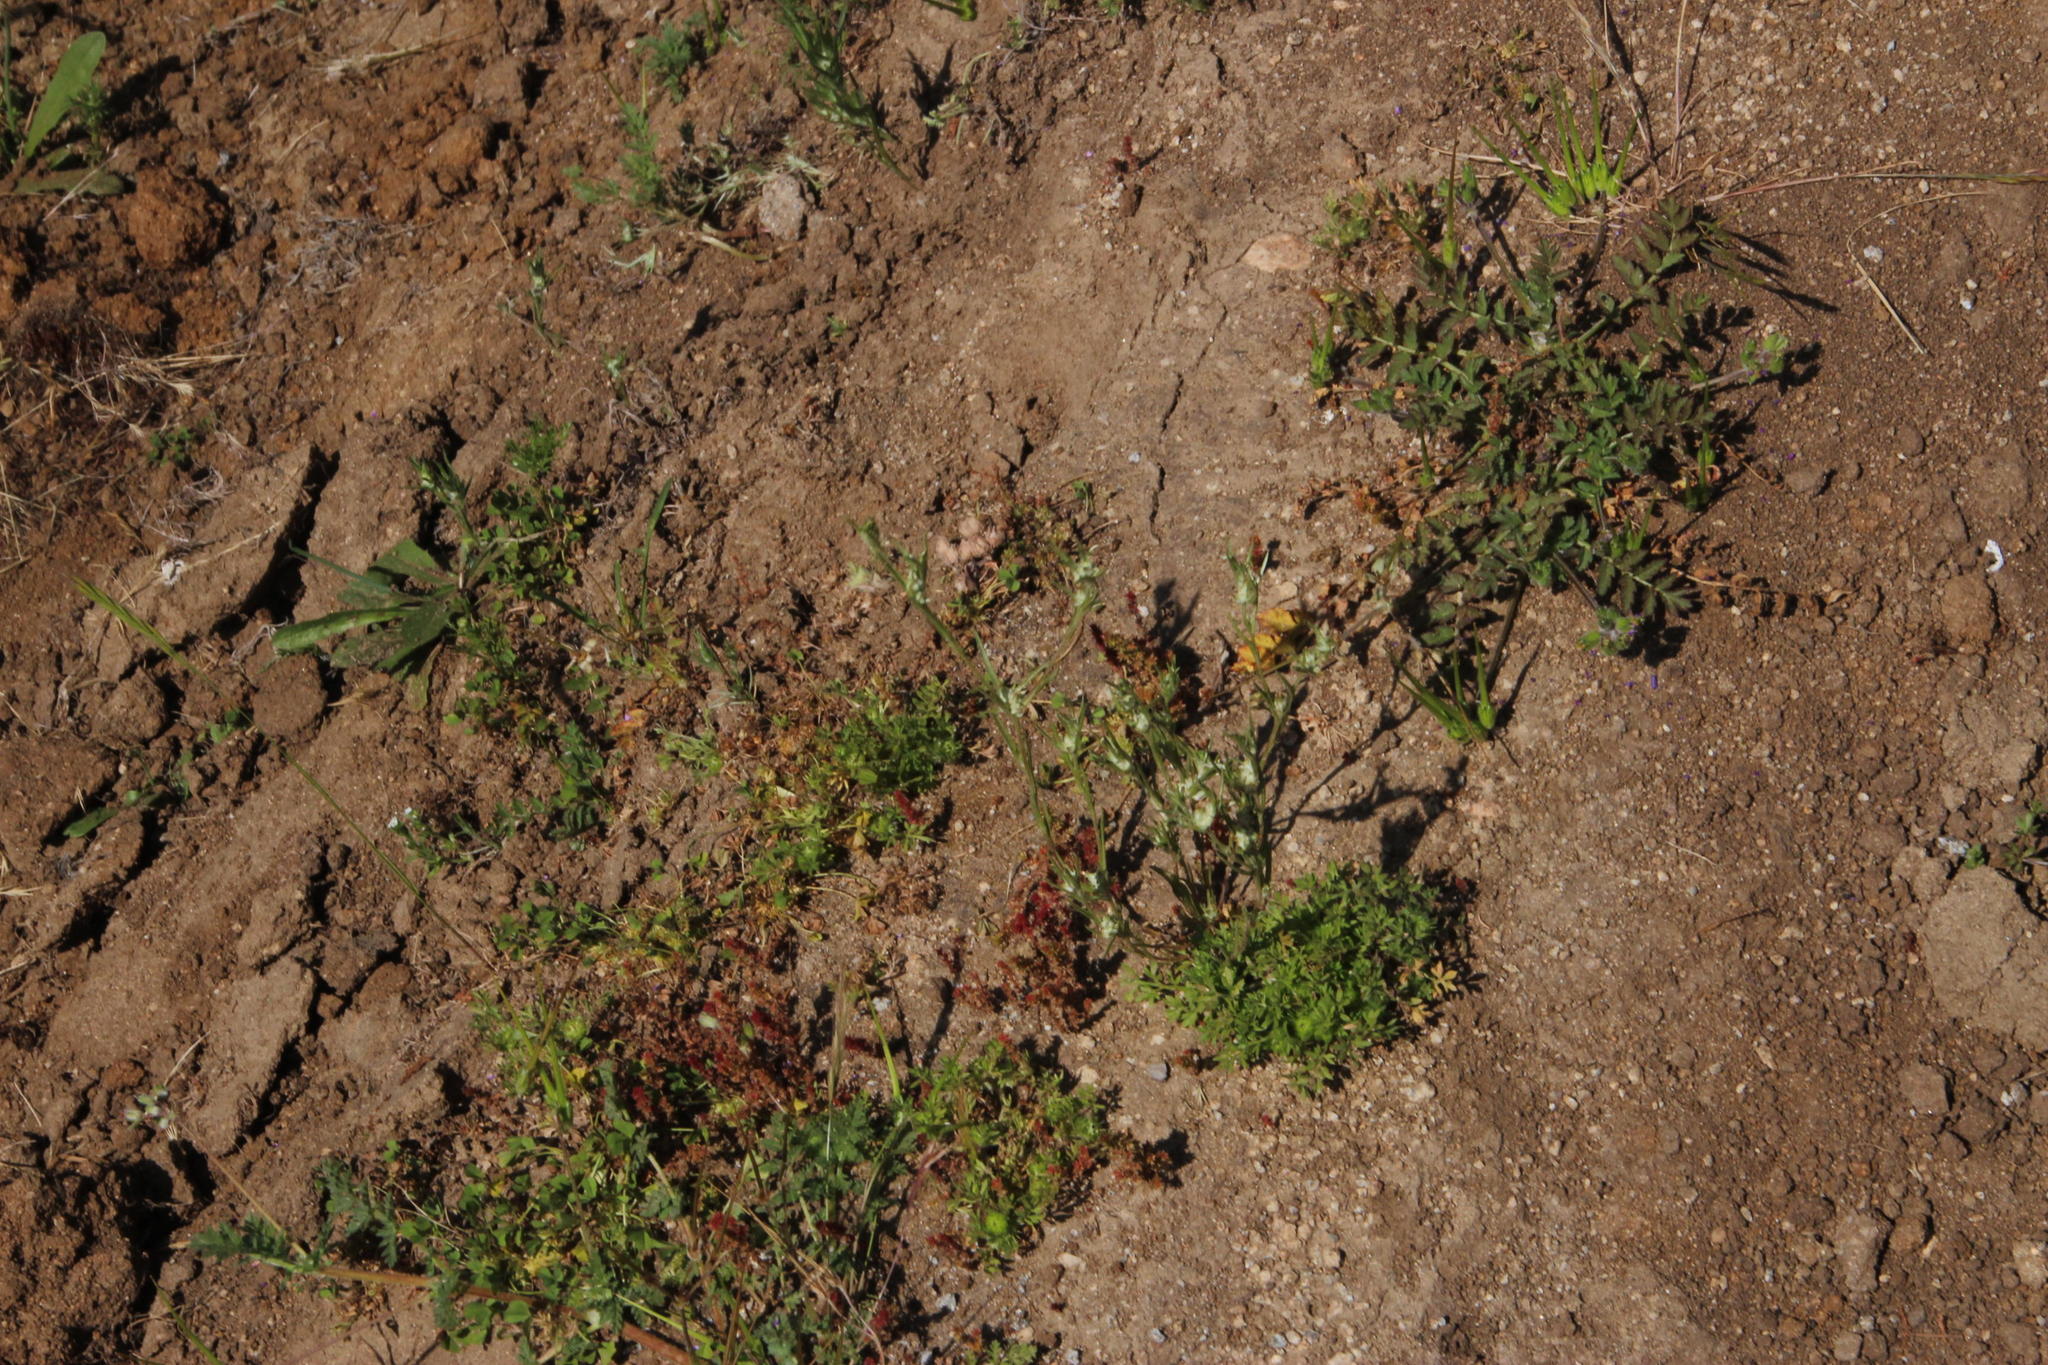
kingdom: Plantae
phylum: Tracheophyta
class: Magnoliopsida
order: Asterales
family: Asteraceae
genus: Logfia
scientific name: Logfia gallica
